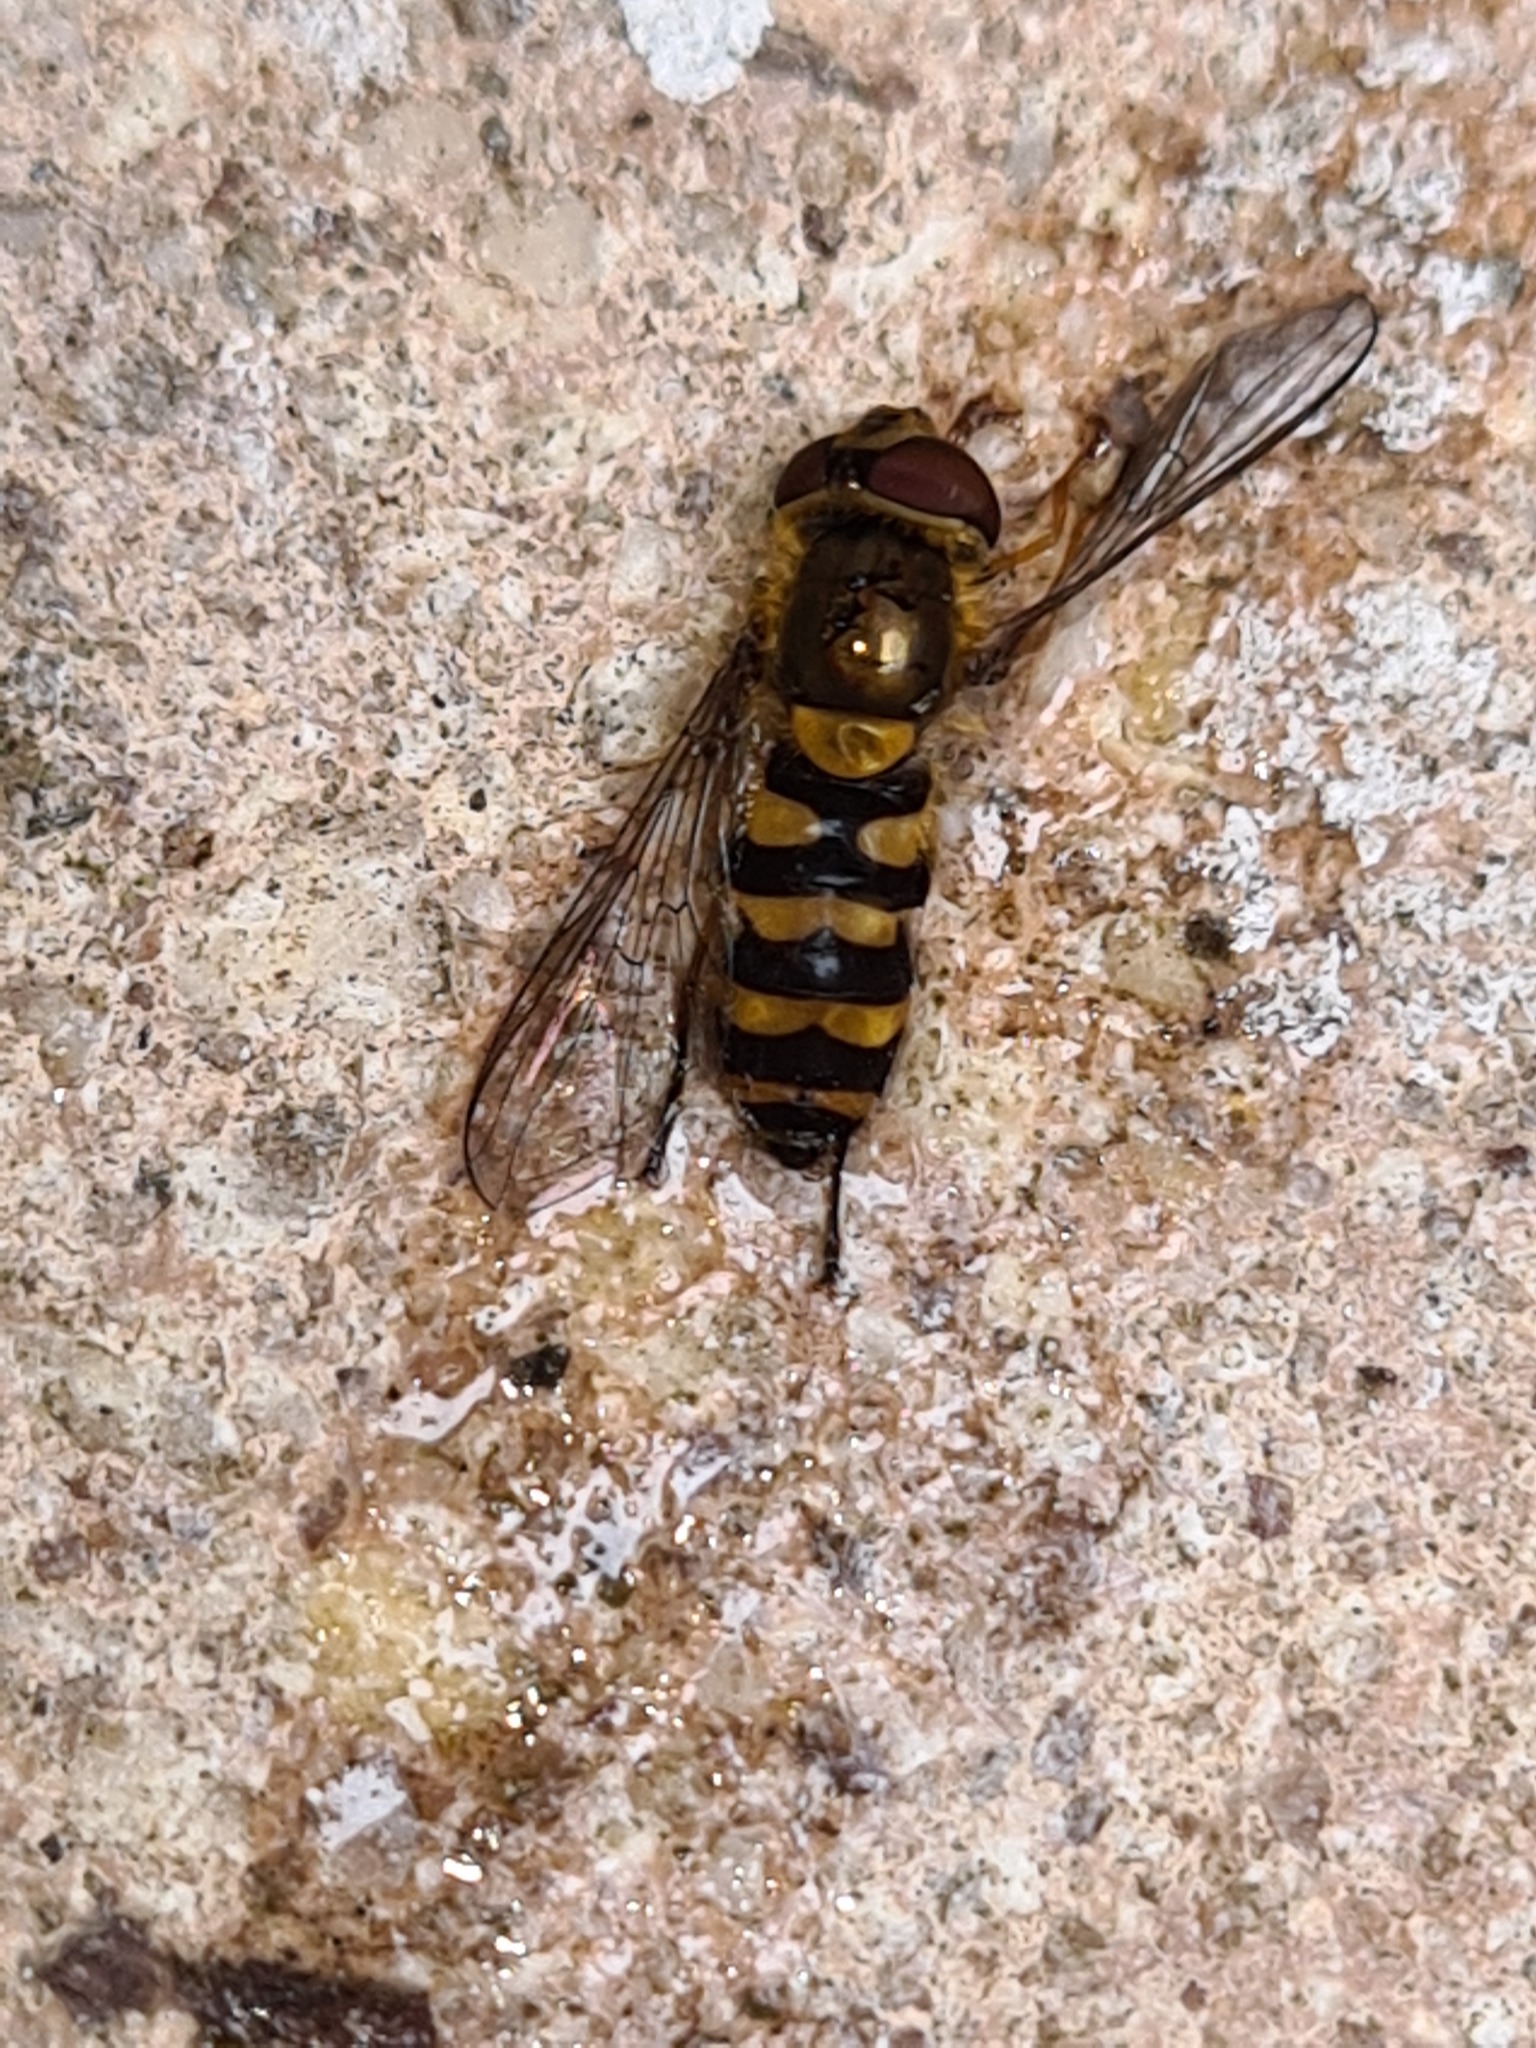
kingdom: Animalia
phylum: Arthropoda
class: Insecta
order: Diptera
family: Syrphidae
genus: Syrphus
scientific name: Syrphus
